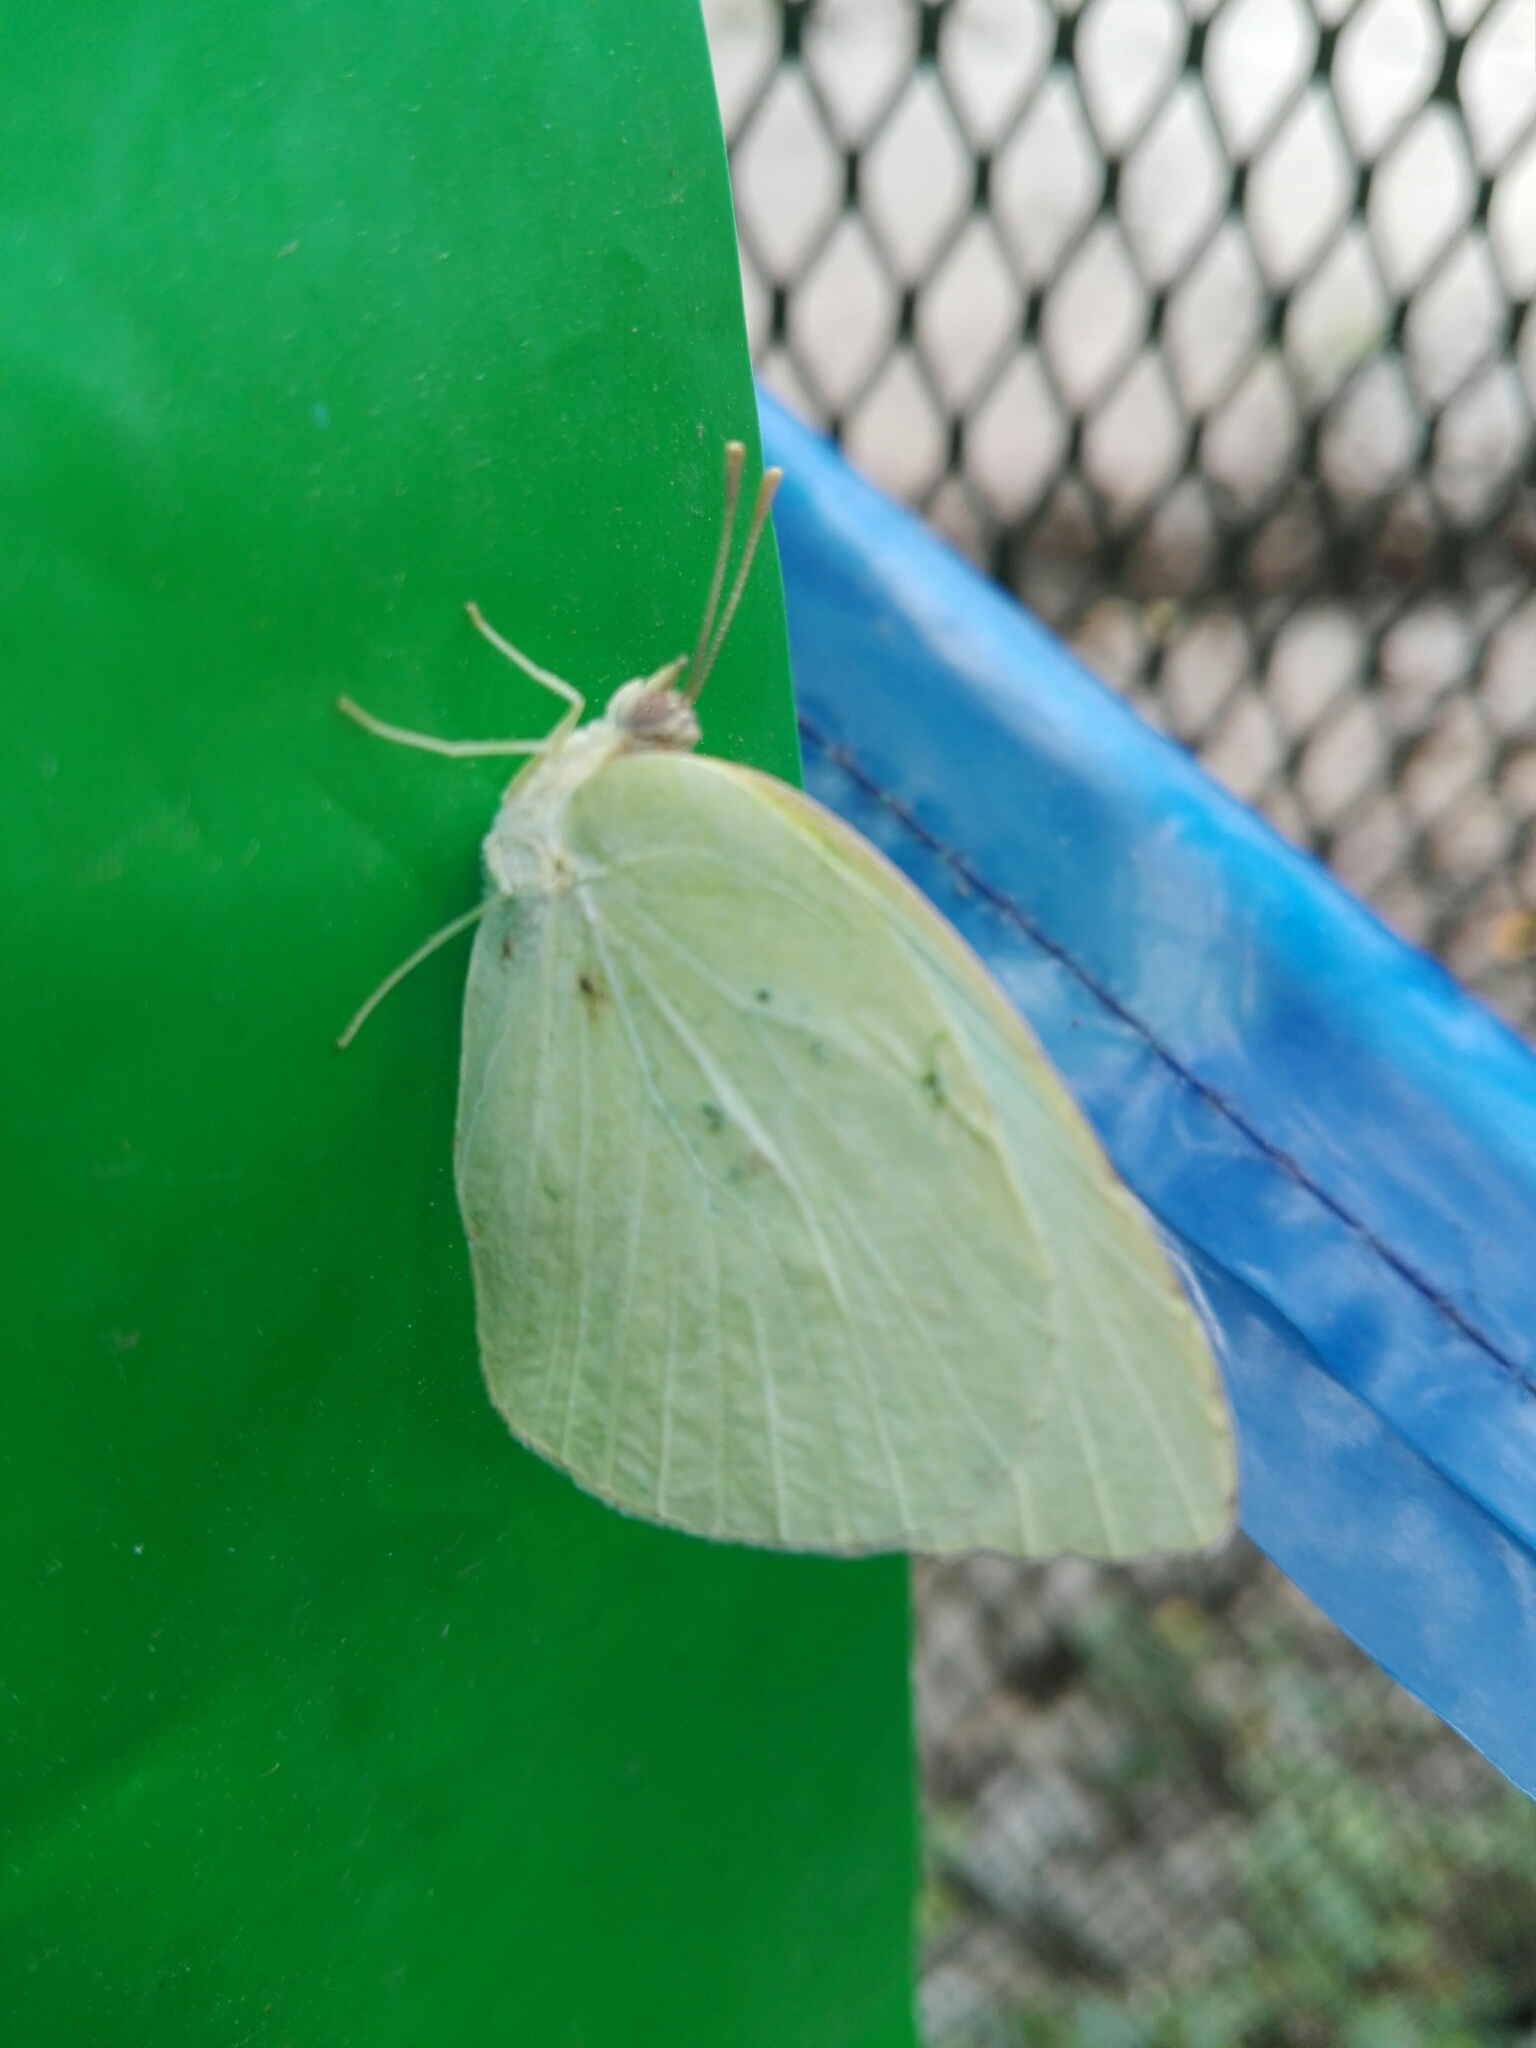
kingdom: Animalia
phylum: Arthropoda
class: Insecta
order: Lepidoptera
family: Pieridae
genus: Kricogonia
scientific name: Kricogonia lyside
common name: Guayacan sulphur,
